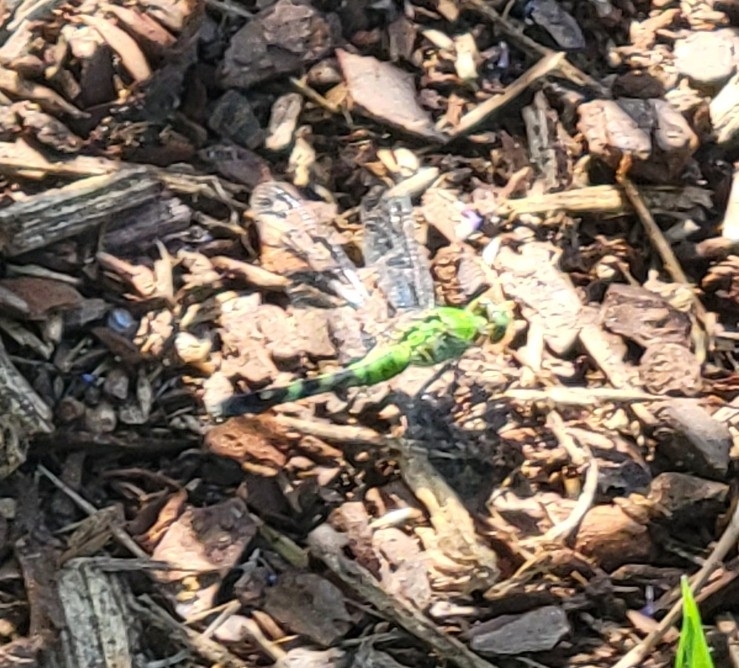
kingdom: Animalia
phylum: Arthropoda
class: Insecta
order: Odonata
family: Libellulidae
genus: Erythemis
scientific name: Erythemis simplicicollis
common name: Eastern pondhawk
